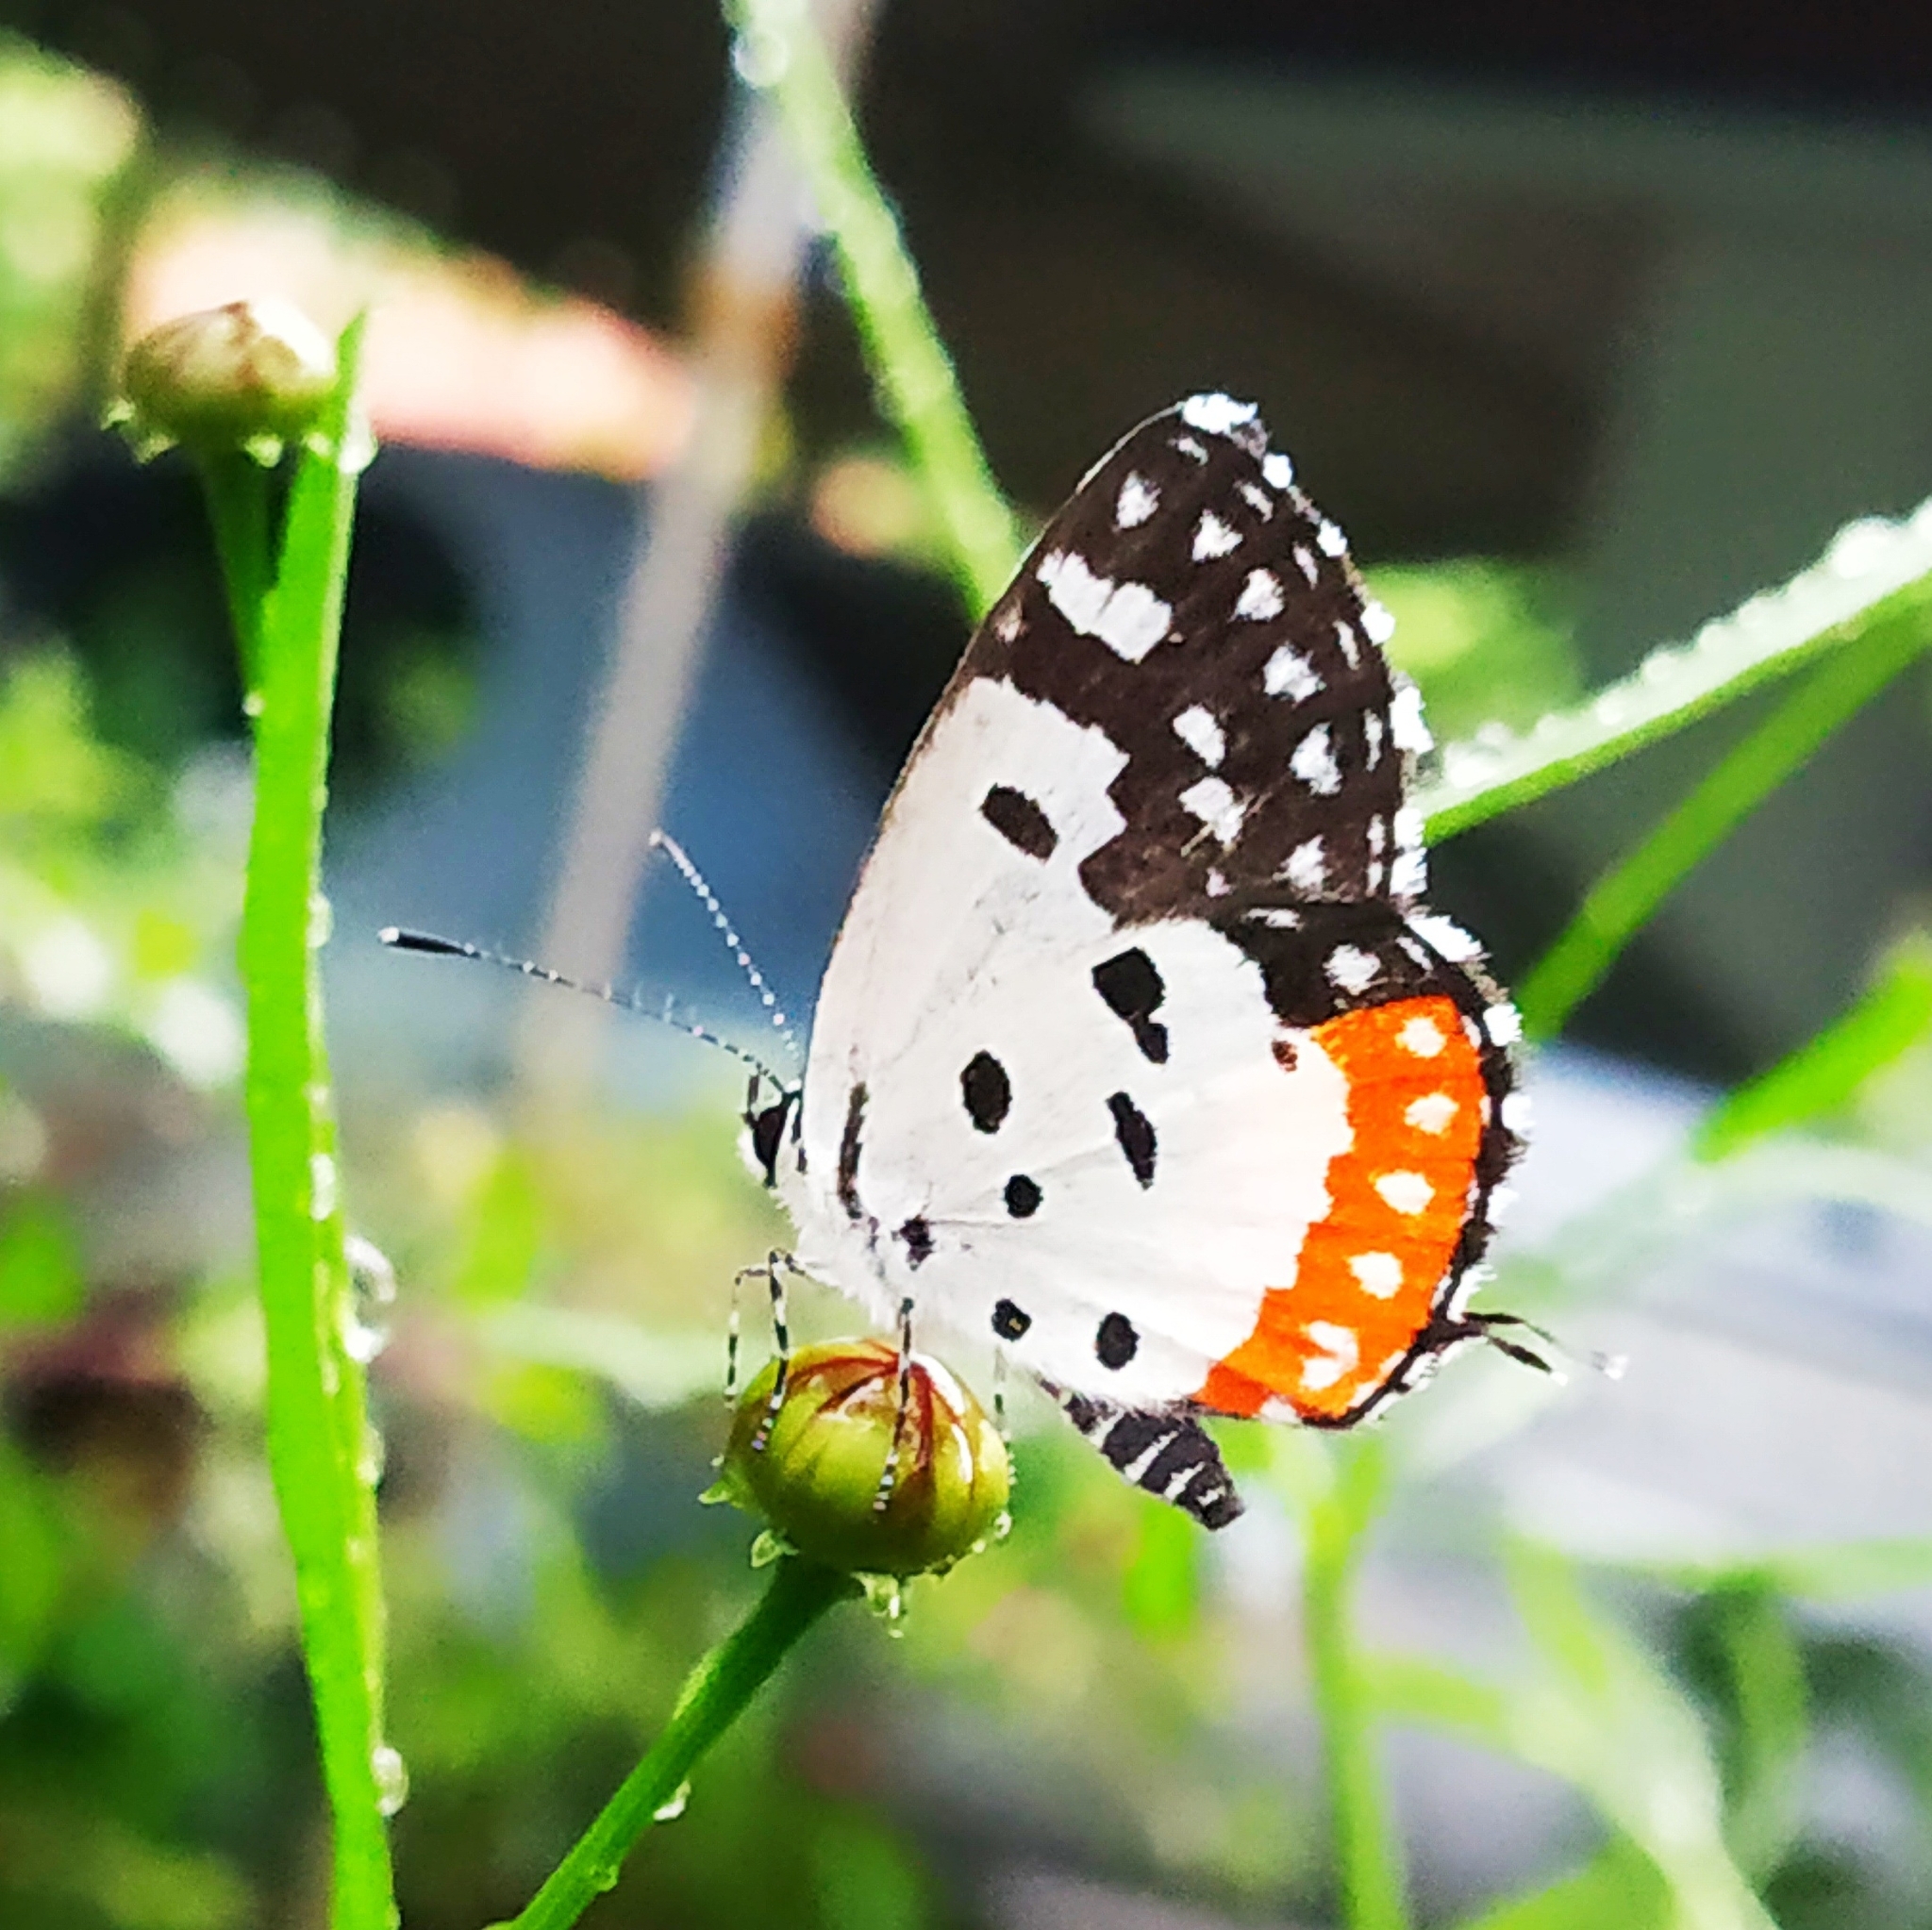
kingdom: Animalia
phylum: Arthropoda
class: Insecta
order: Lepidoptera
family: Lycaenidae
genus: Talicada
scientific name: Talicada nyseus
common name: Red pierrot
